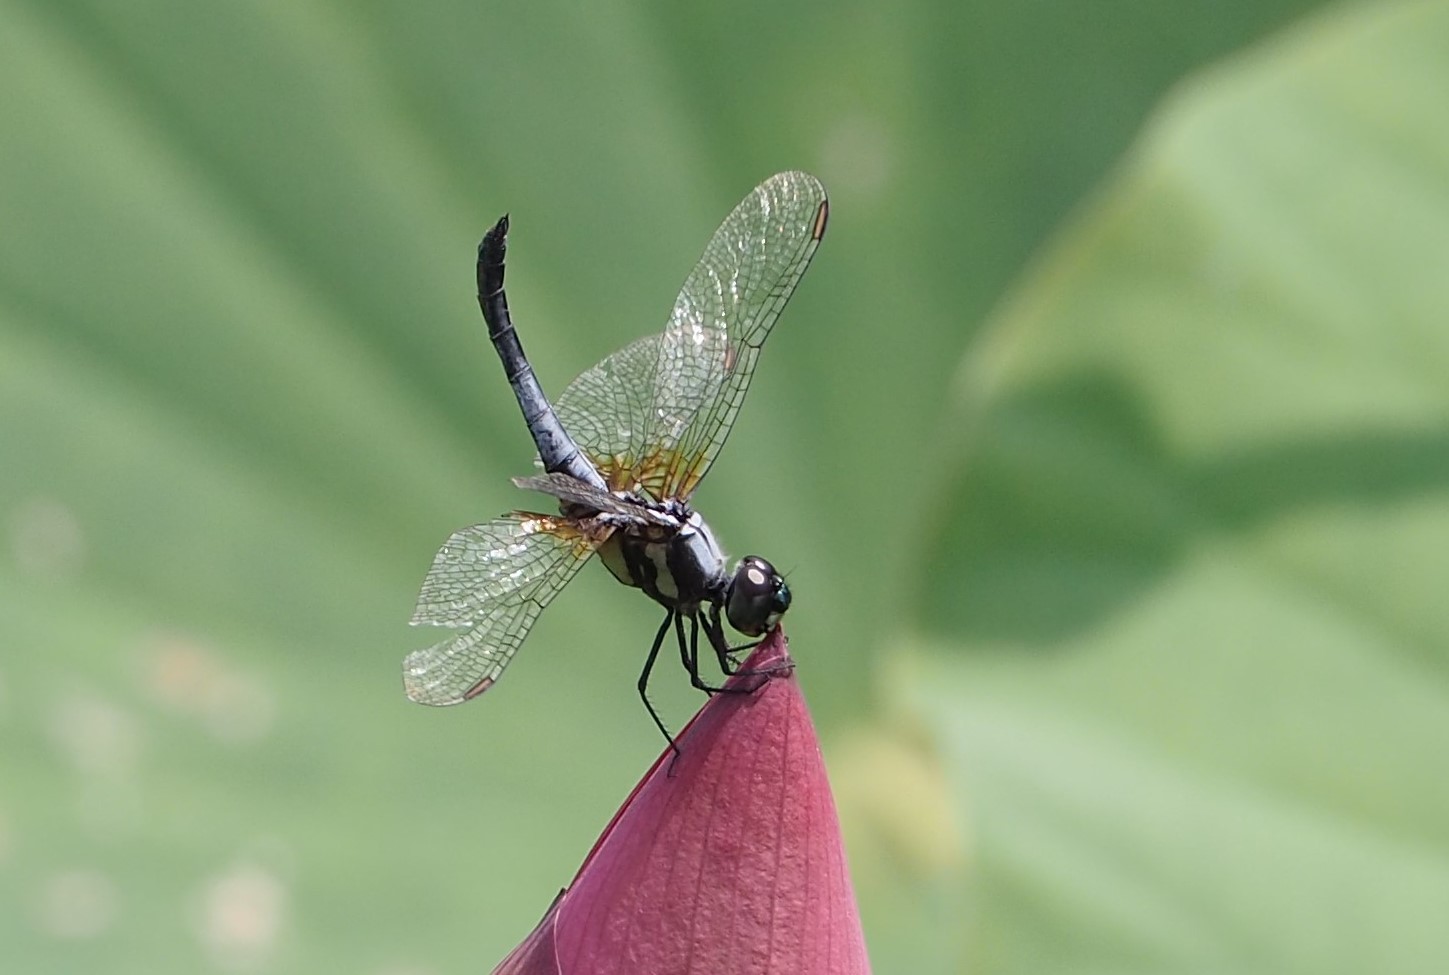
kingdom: Animalia
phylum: Arthropoda
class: Insecta
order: Odonata
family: Libellulidae
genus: Brachydiplax
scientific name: Brachydiplax chalybea
